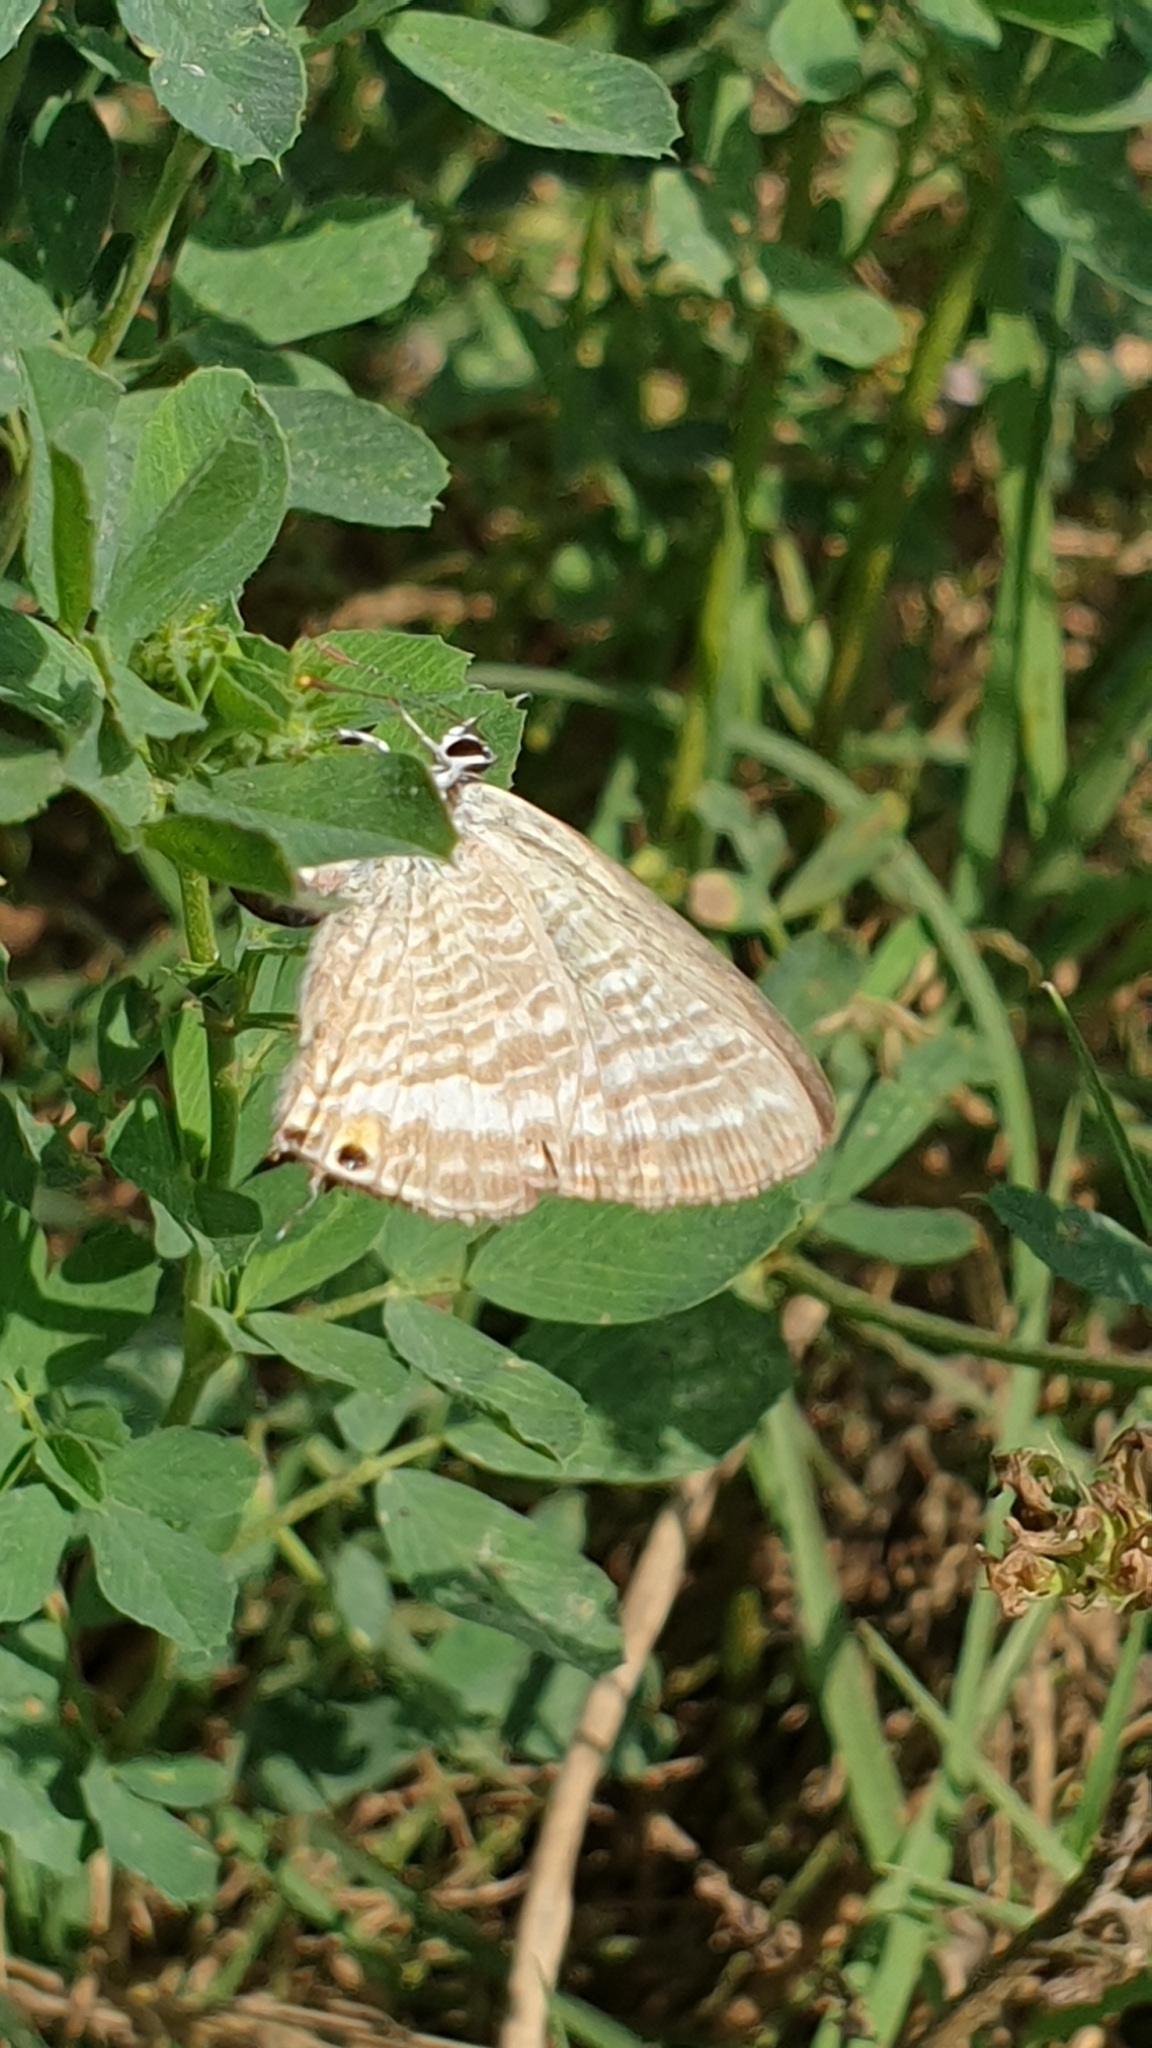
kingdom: Animalia
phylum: Arthropoda
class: Insecta
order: Lepidoptera
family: Lycaenidae
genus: Lampides
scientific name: Lampides boeticus
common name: Long-tailed blue
